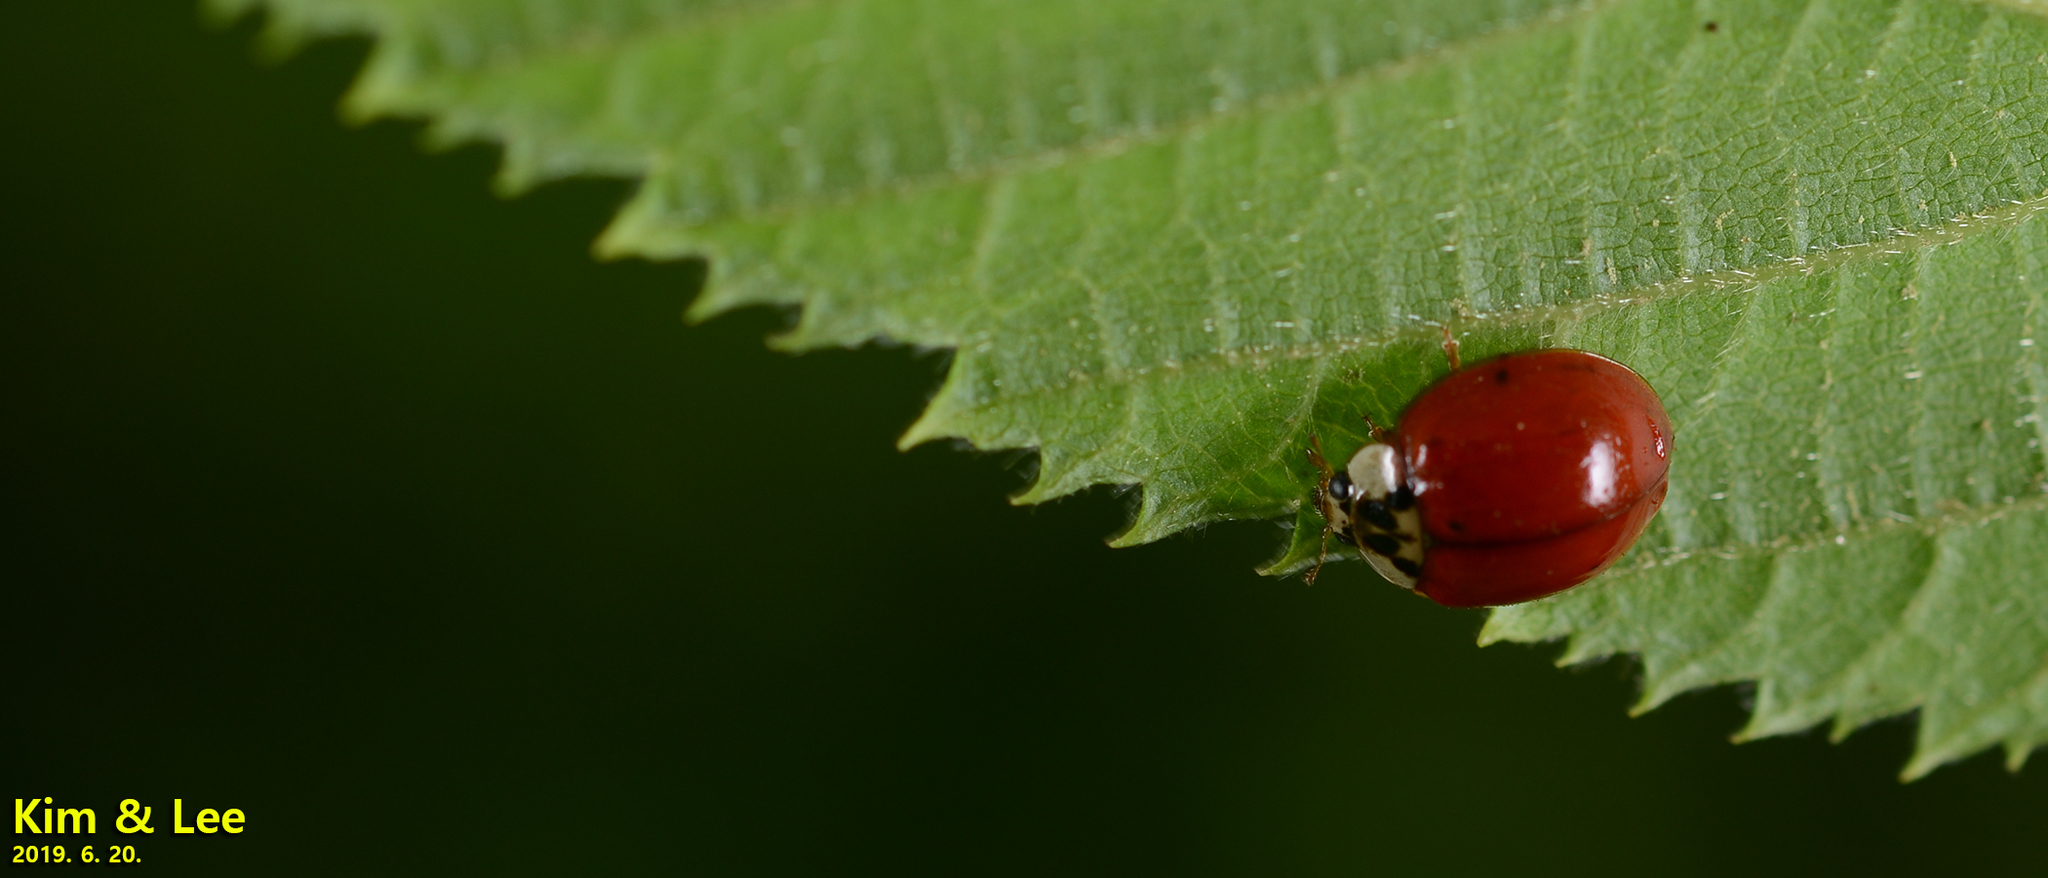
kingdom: Animalia
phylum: Arthropoda
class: Insecta
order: Coleoptera
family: Coccinellidae
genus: Harmonia
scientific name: Harmonia axyridis
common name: Harlequin ladybird
